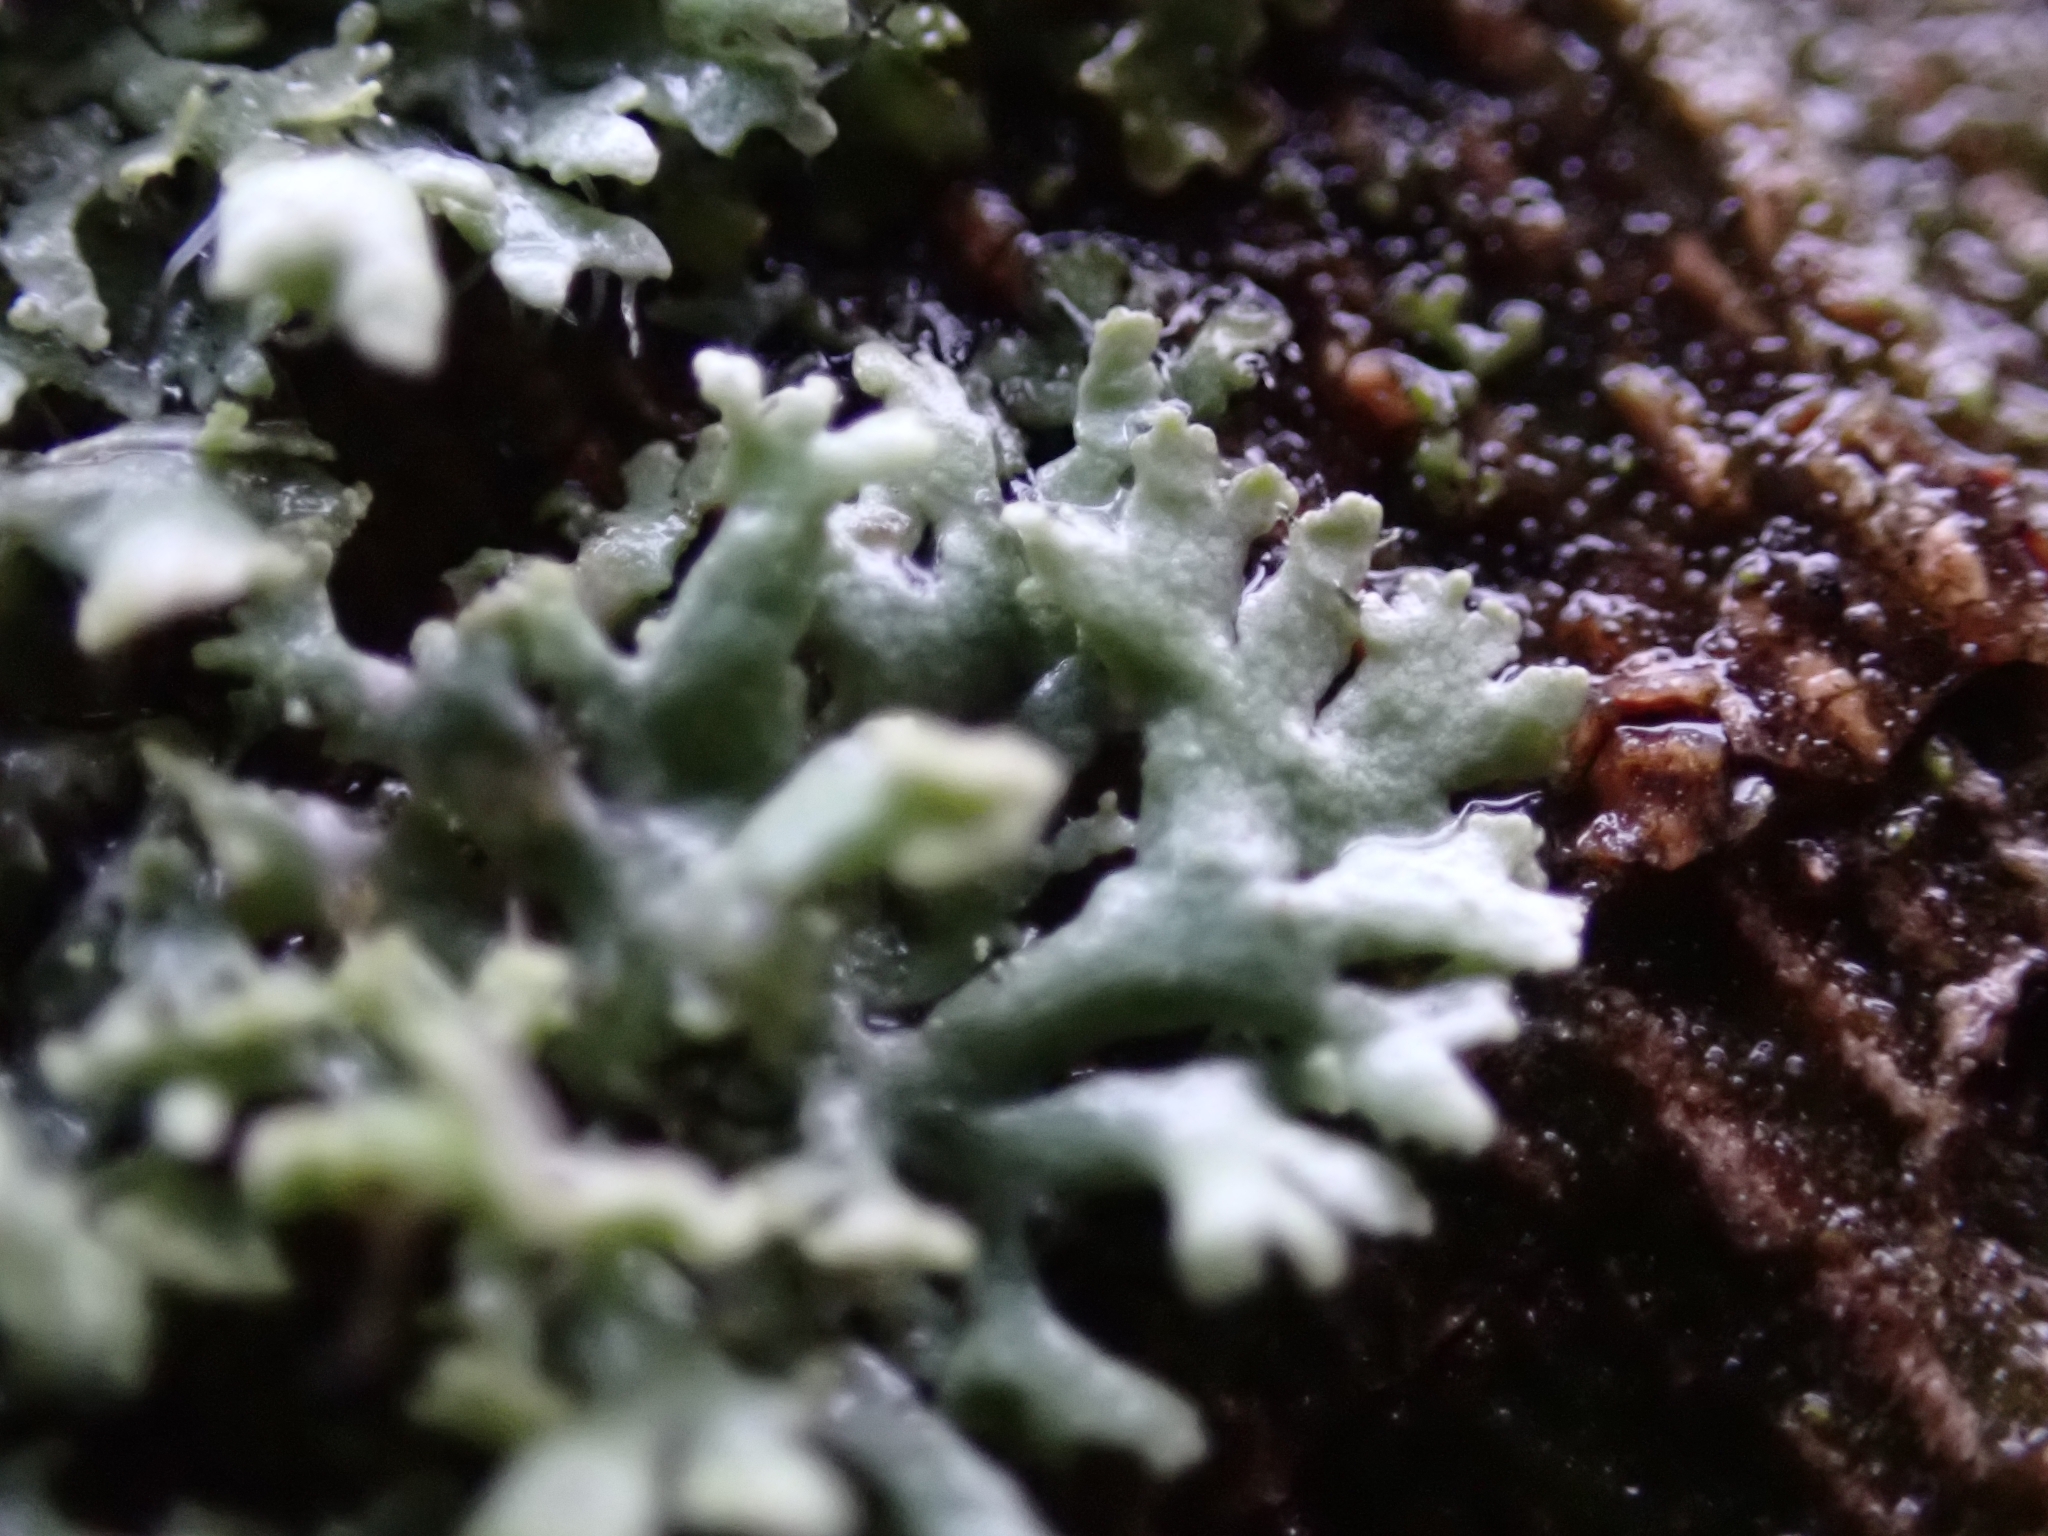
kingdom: Fungi
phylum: Ascomycota
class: Lecanoromycetes
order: Caliciales
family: Physciaceae
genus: Physcia
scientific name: Physcia adscendens
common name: Hooded rosette lichen
